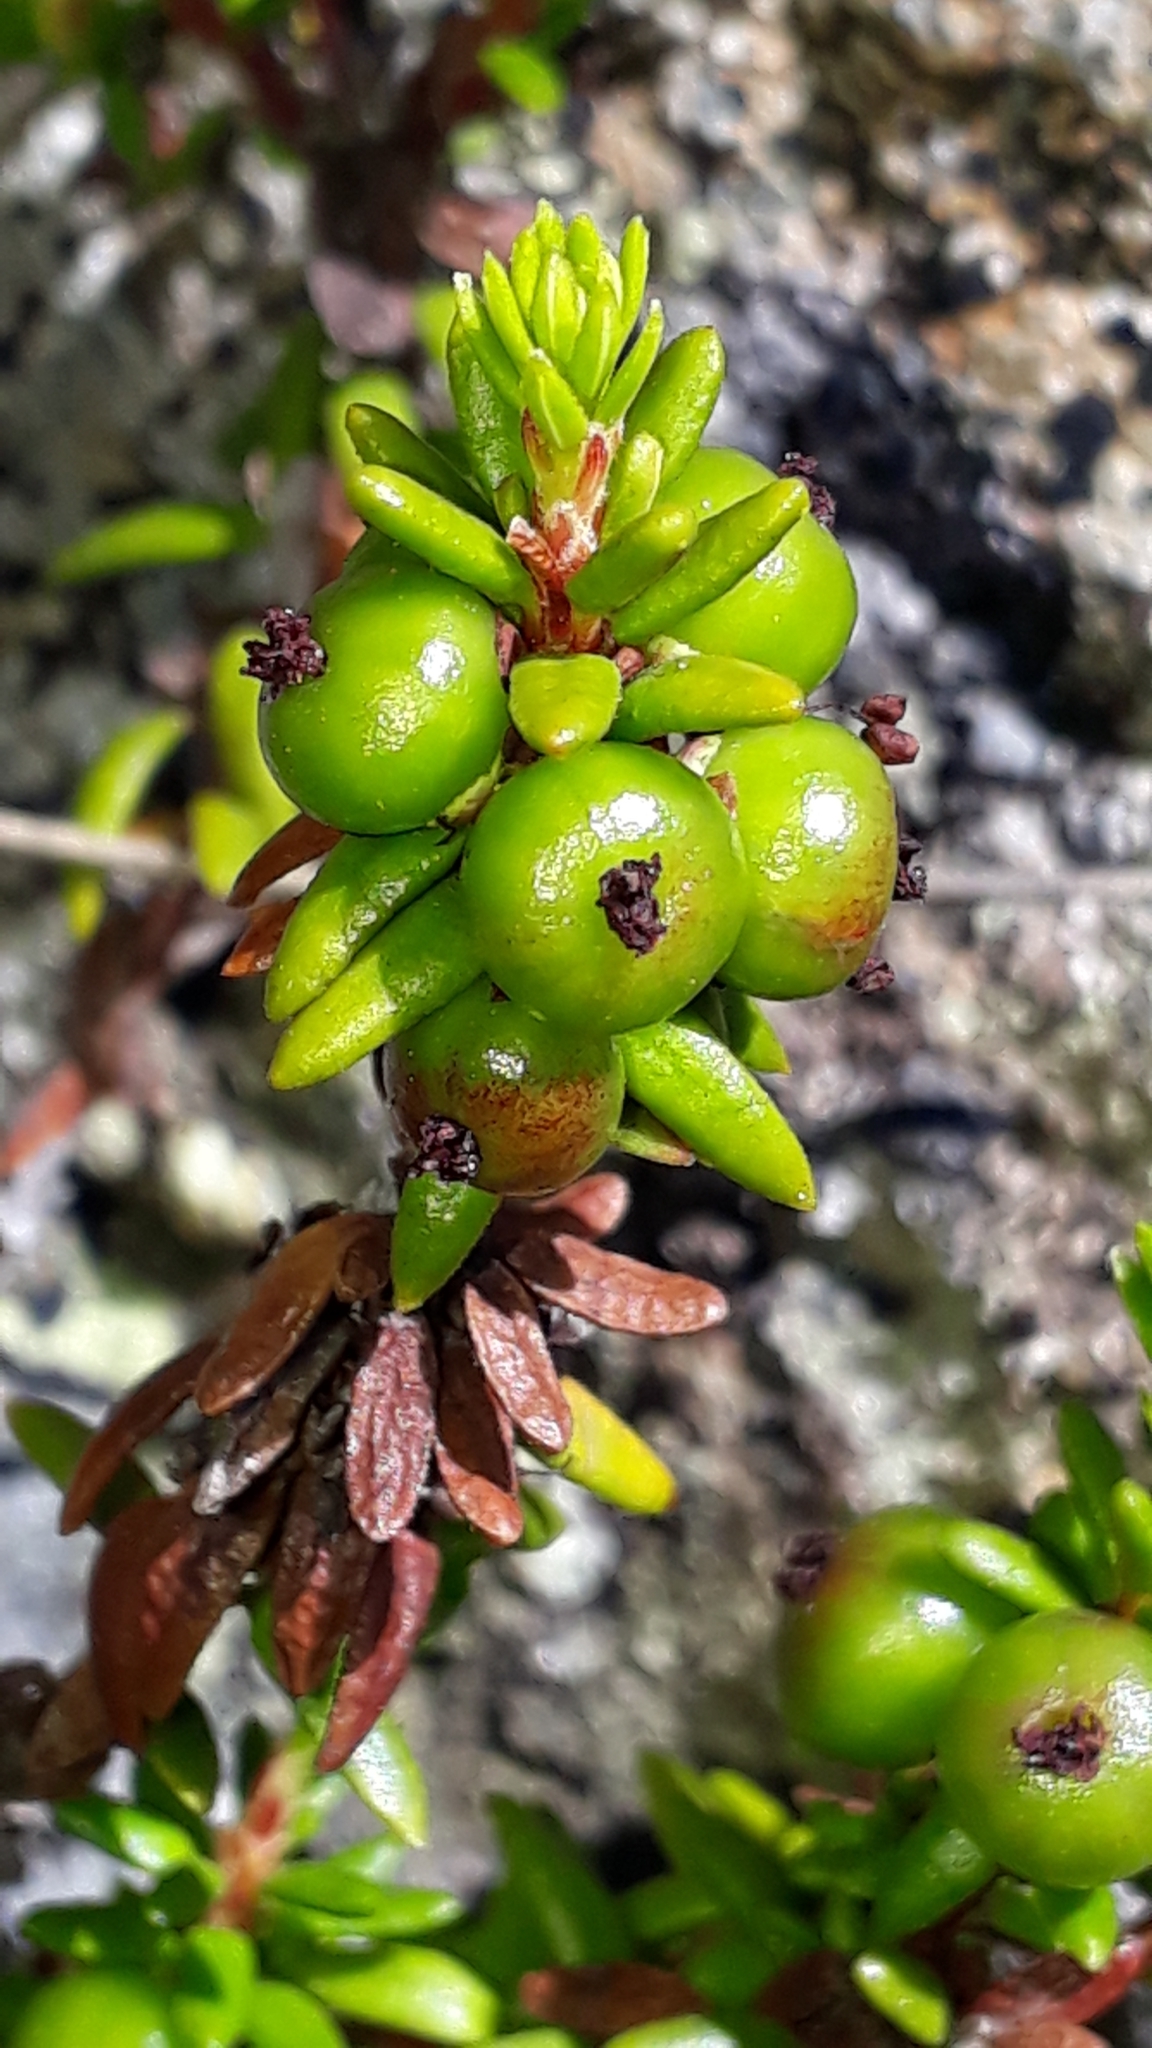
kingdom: Plantae
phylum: Tracheophyta
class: Magnoliopsida
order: Ericales
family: Ericaceae
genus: Empetrum
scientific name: Empetrum nigrum
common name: Black crowberry
